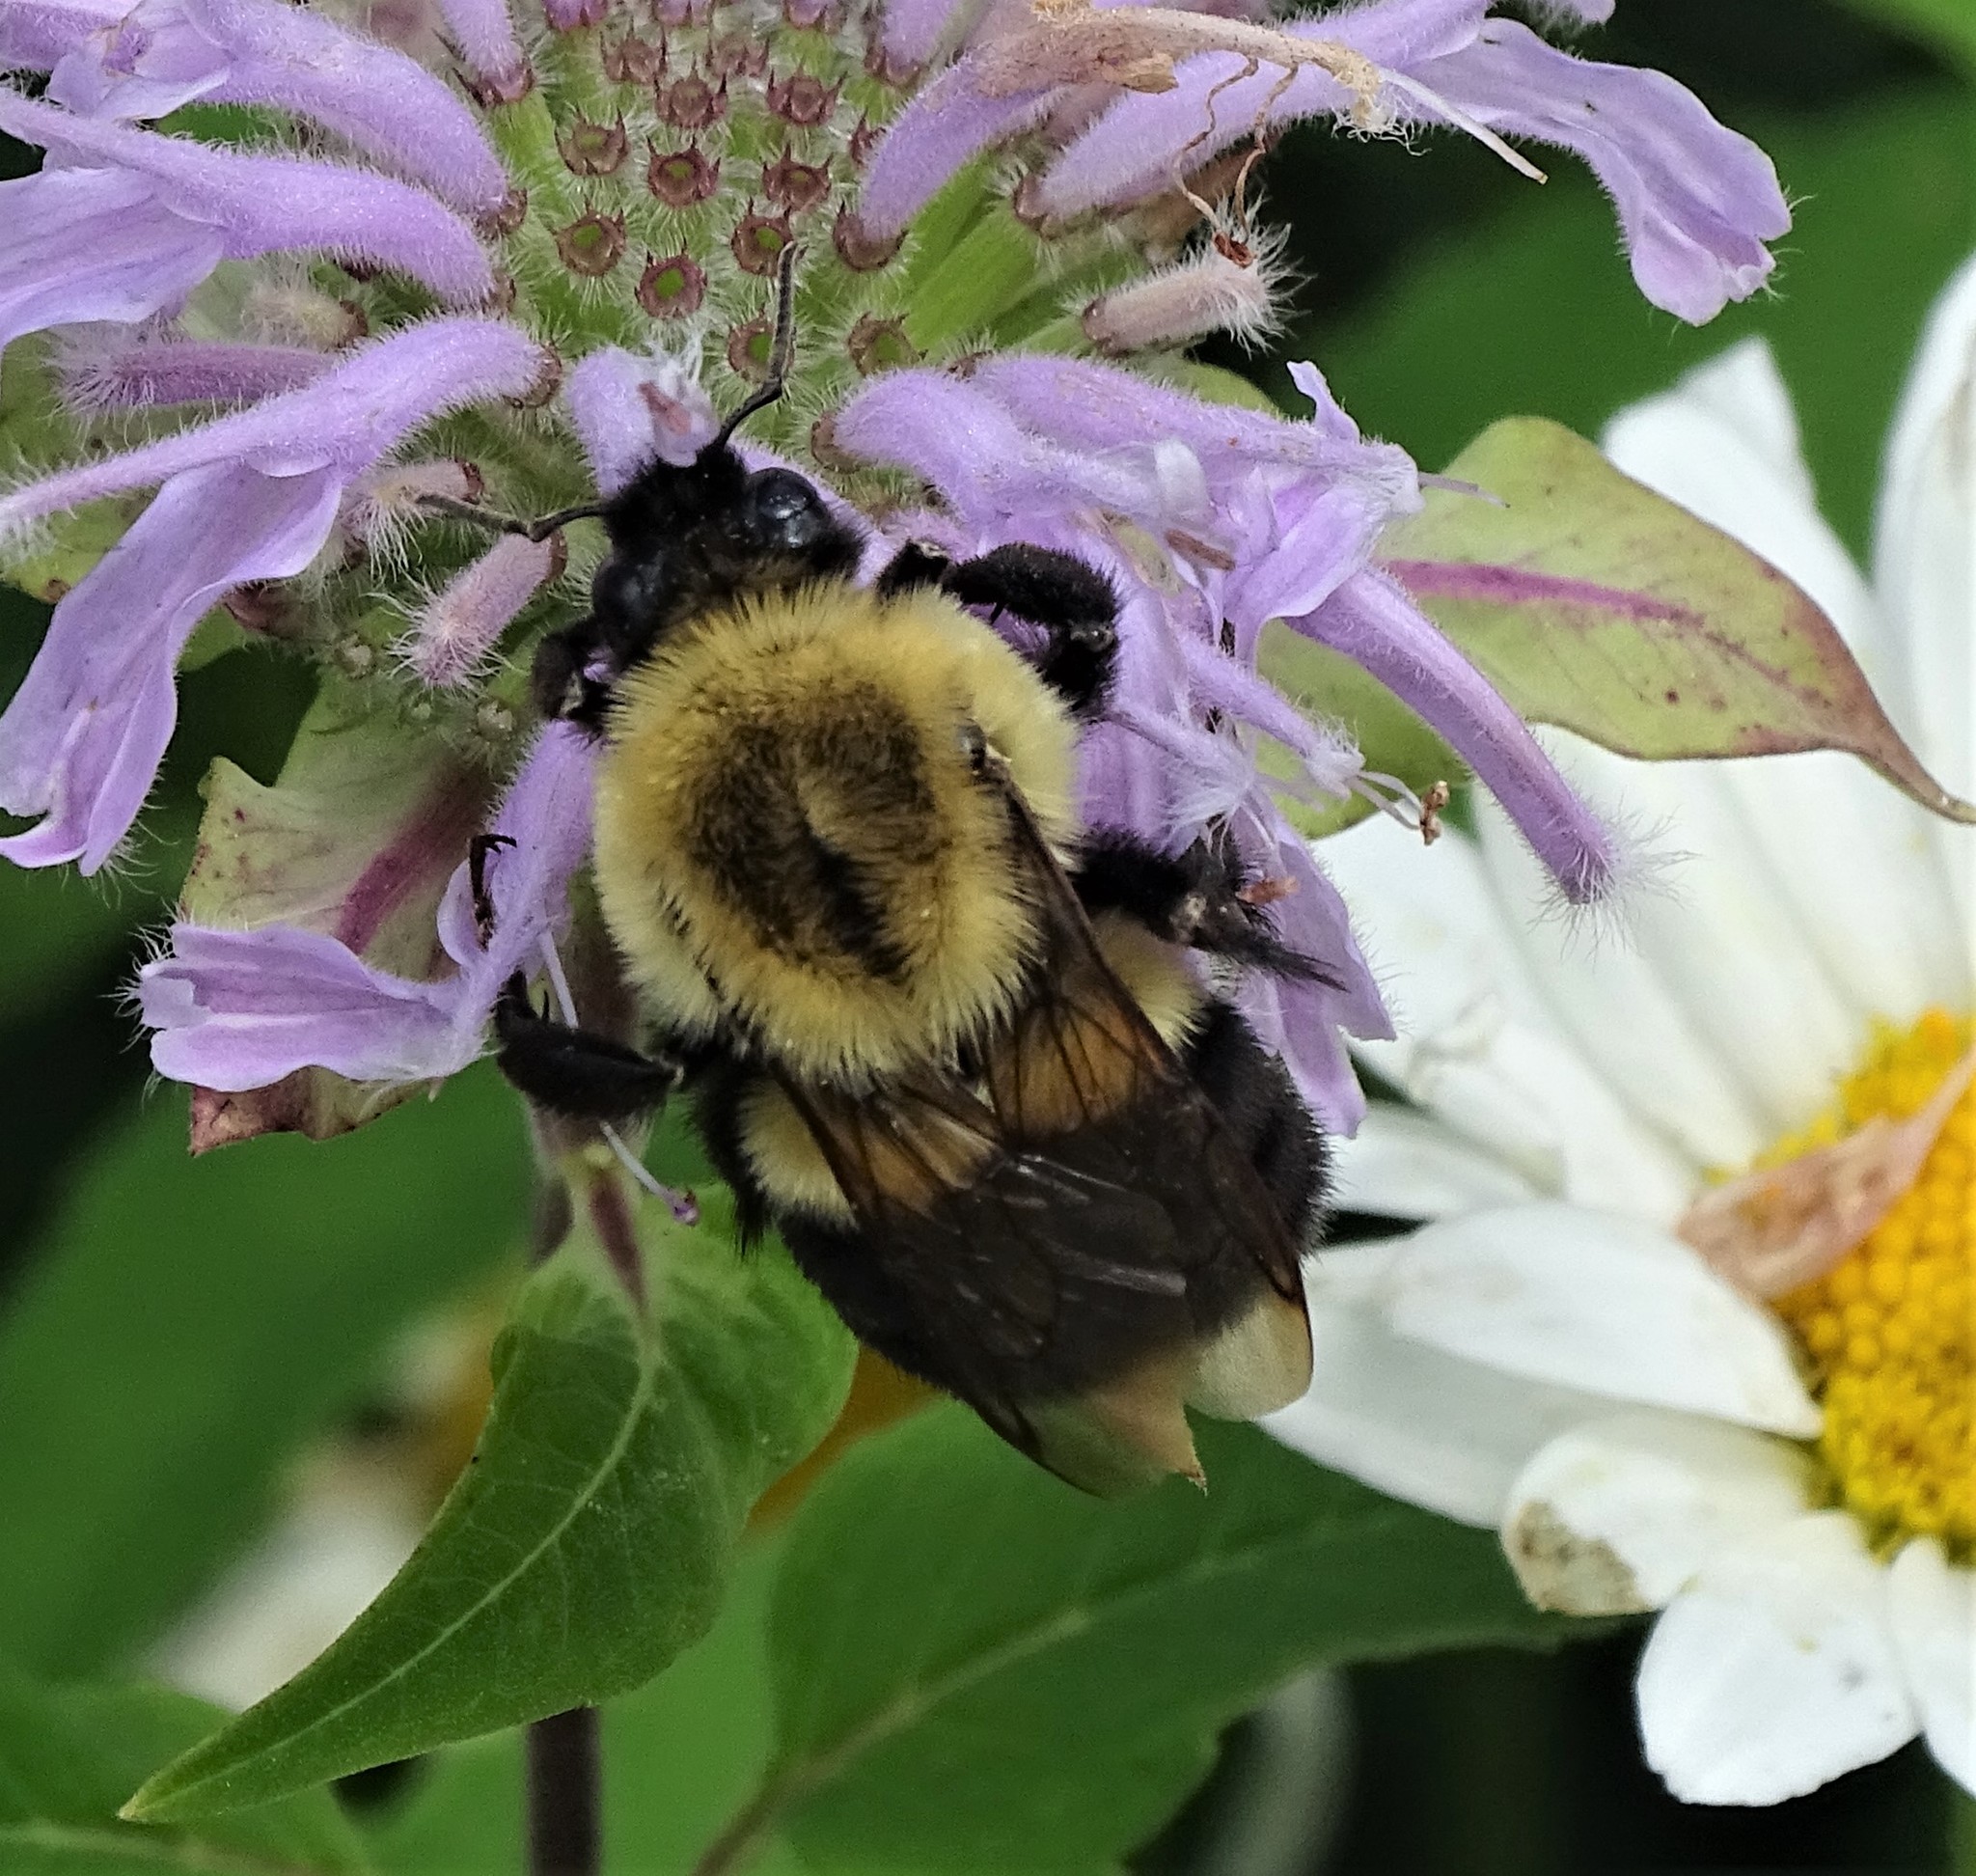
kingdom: Animalia
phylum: Arthropoda
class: Insecta
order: Hymenoptera
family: Apidae
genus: Bombus
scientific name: Bombus impatiens
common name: Common eastern bumble bee
